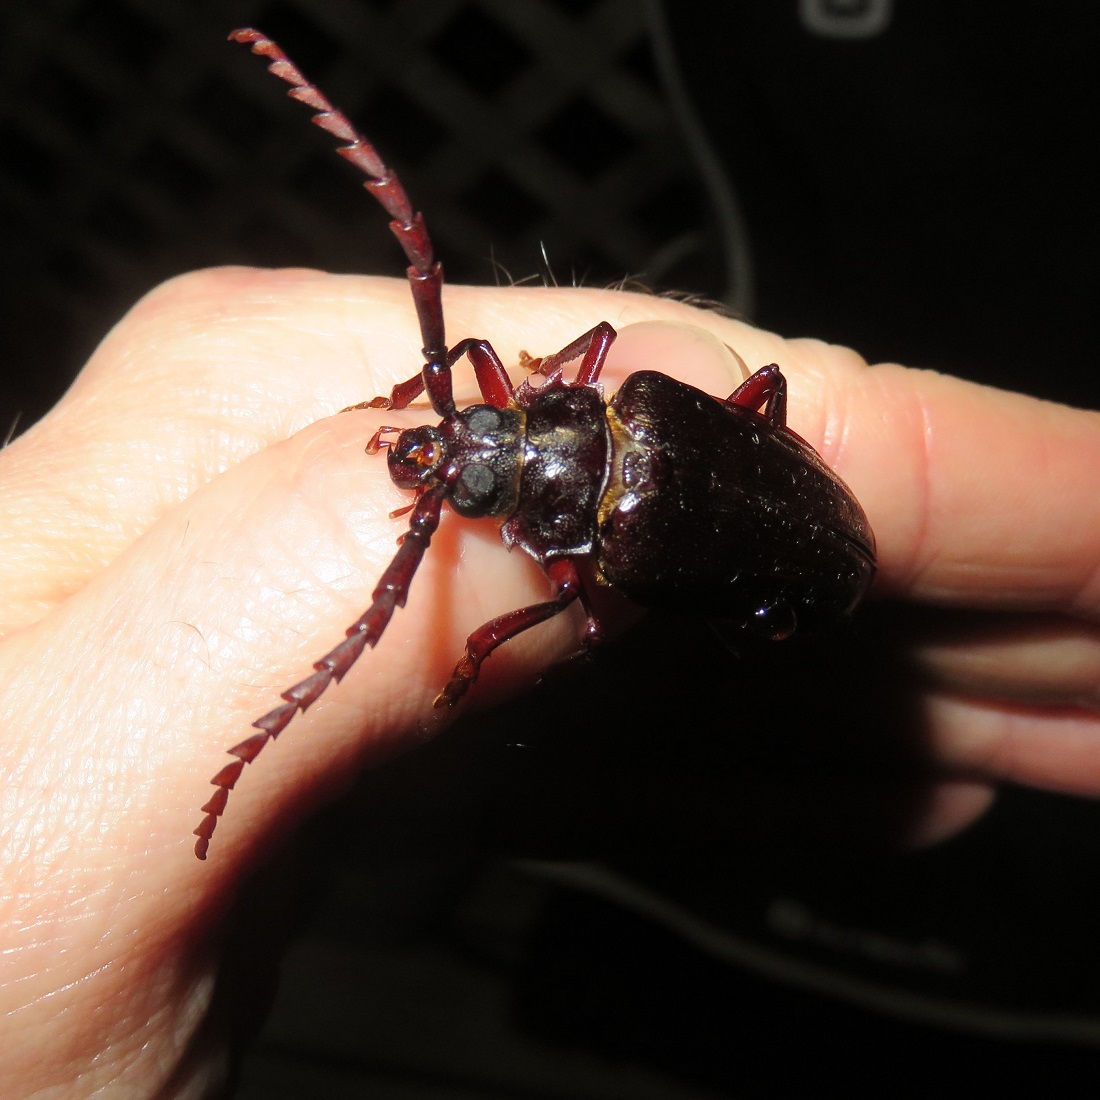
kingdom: Animalia
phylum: Arthropoda
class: Insecta
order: Coleoptera
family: Cerambycidae
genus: Orthosoma
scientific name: Orthosoma brunneum
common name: Brown prionid beetle
